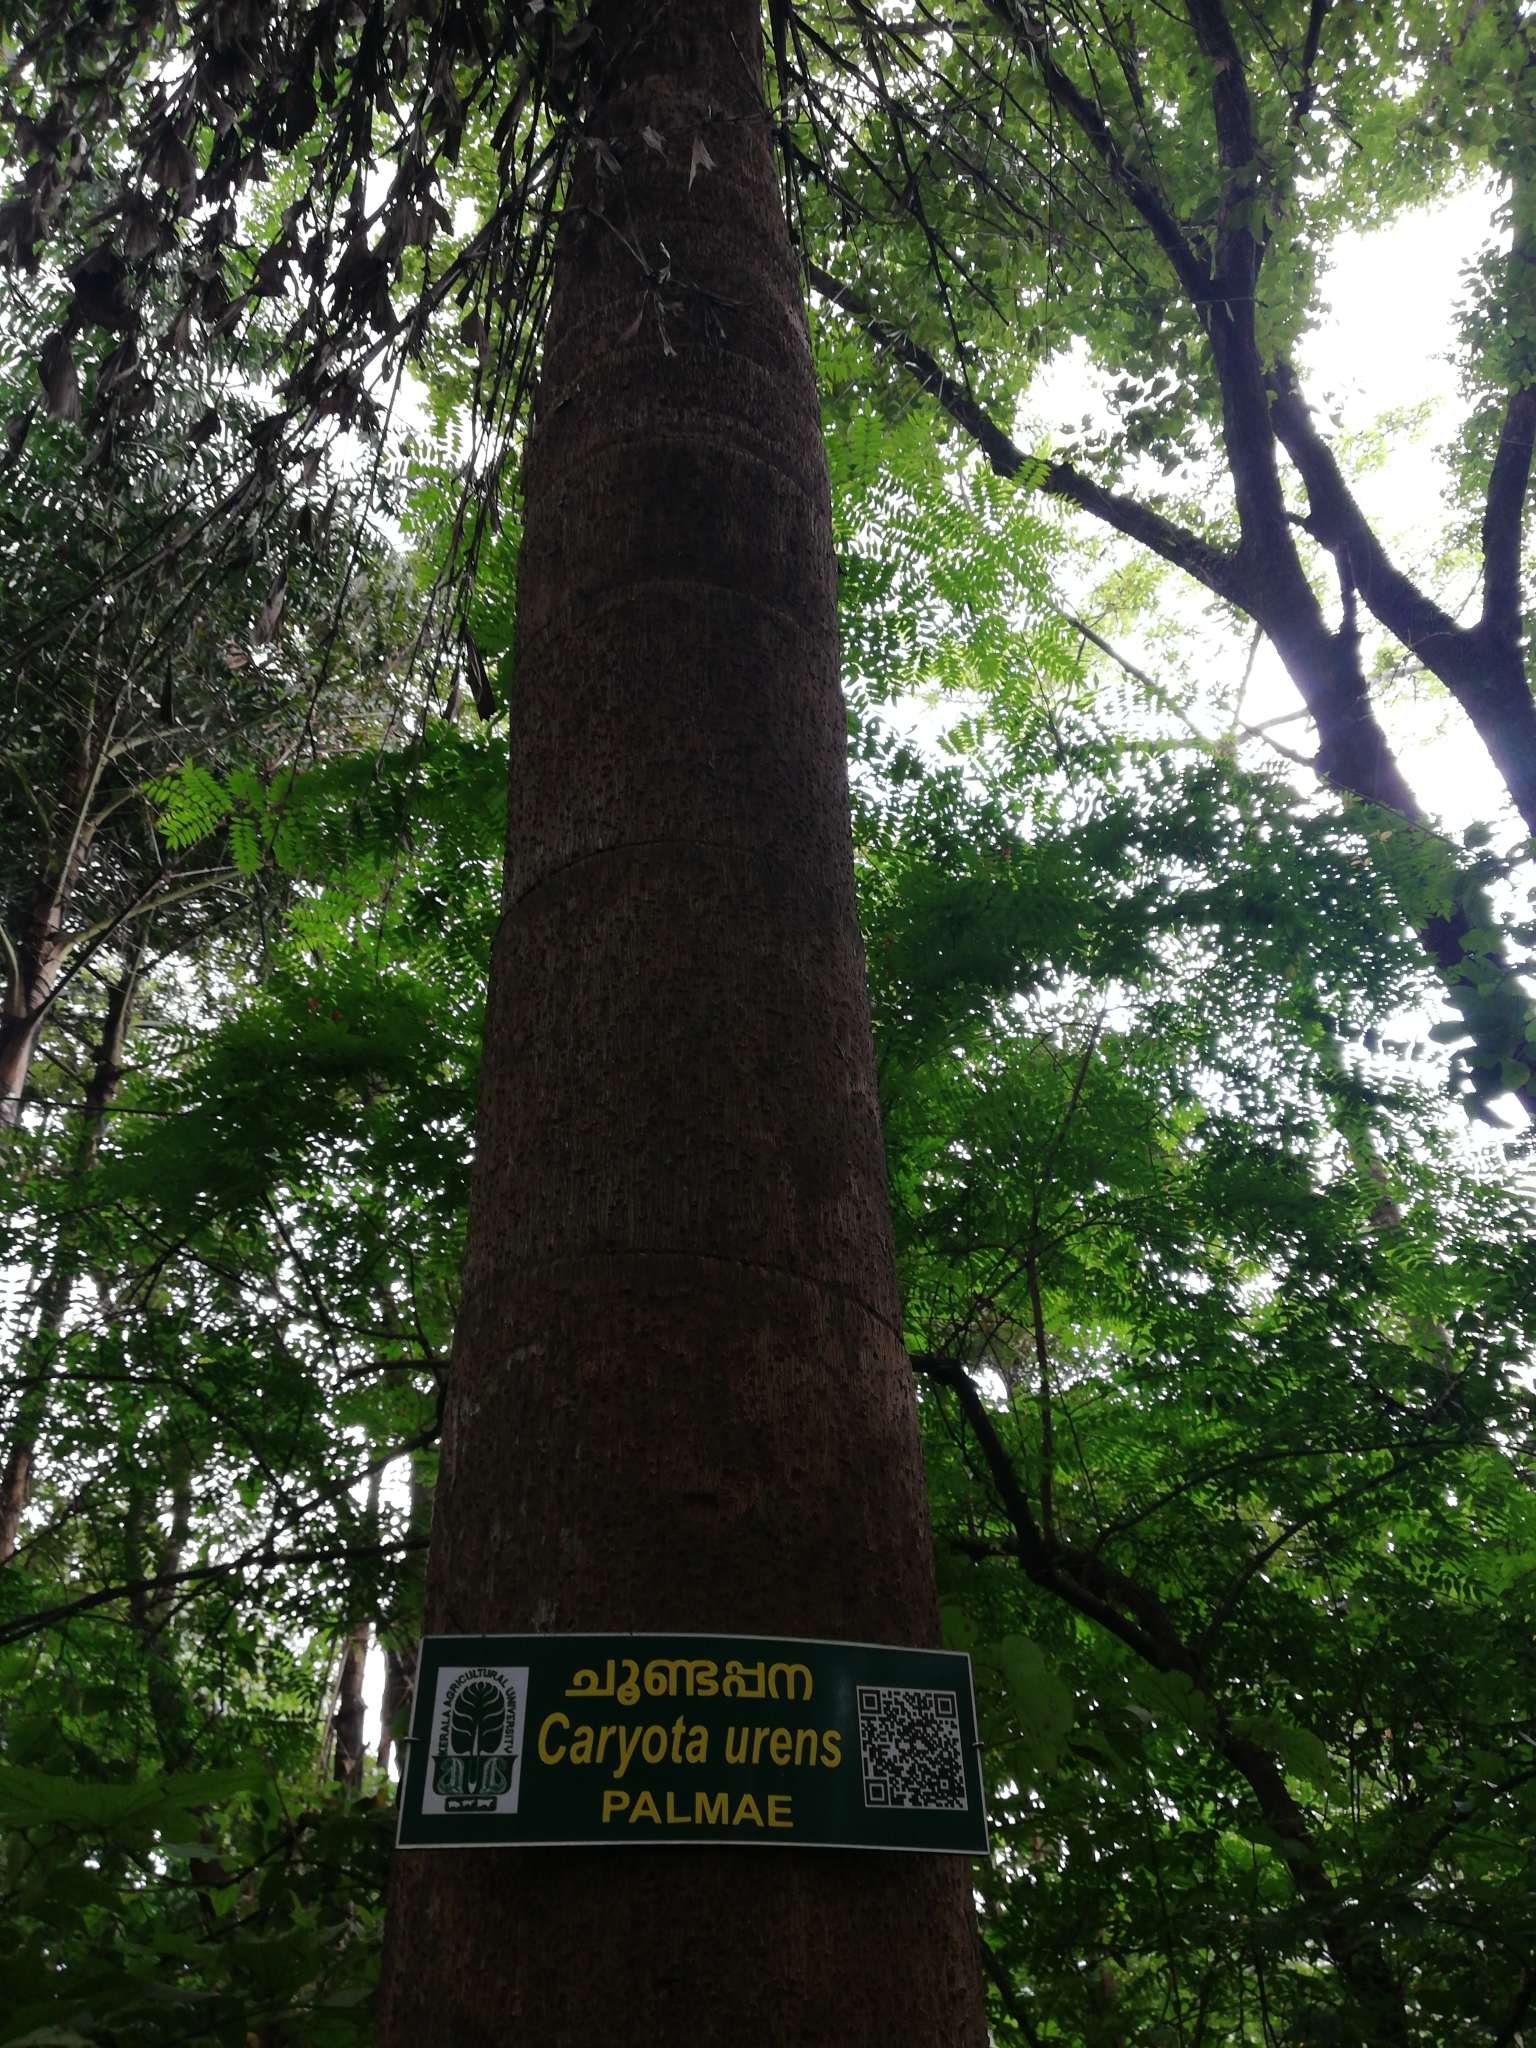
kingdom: Plantae
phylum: Tracheophyta
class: Liliopsida
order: Arecales
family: Arecaceae
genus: Caryota
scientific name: Caryota urens
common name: Jaggery palm
